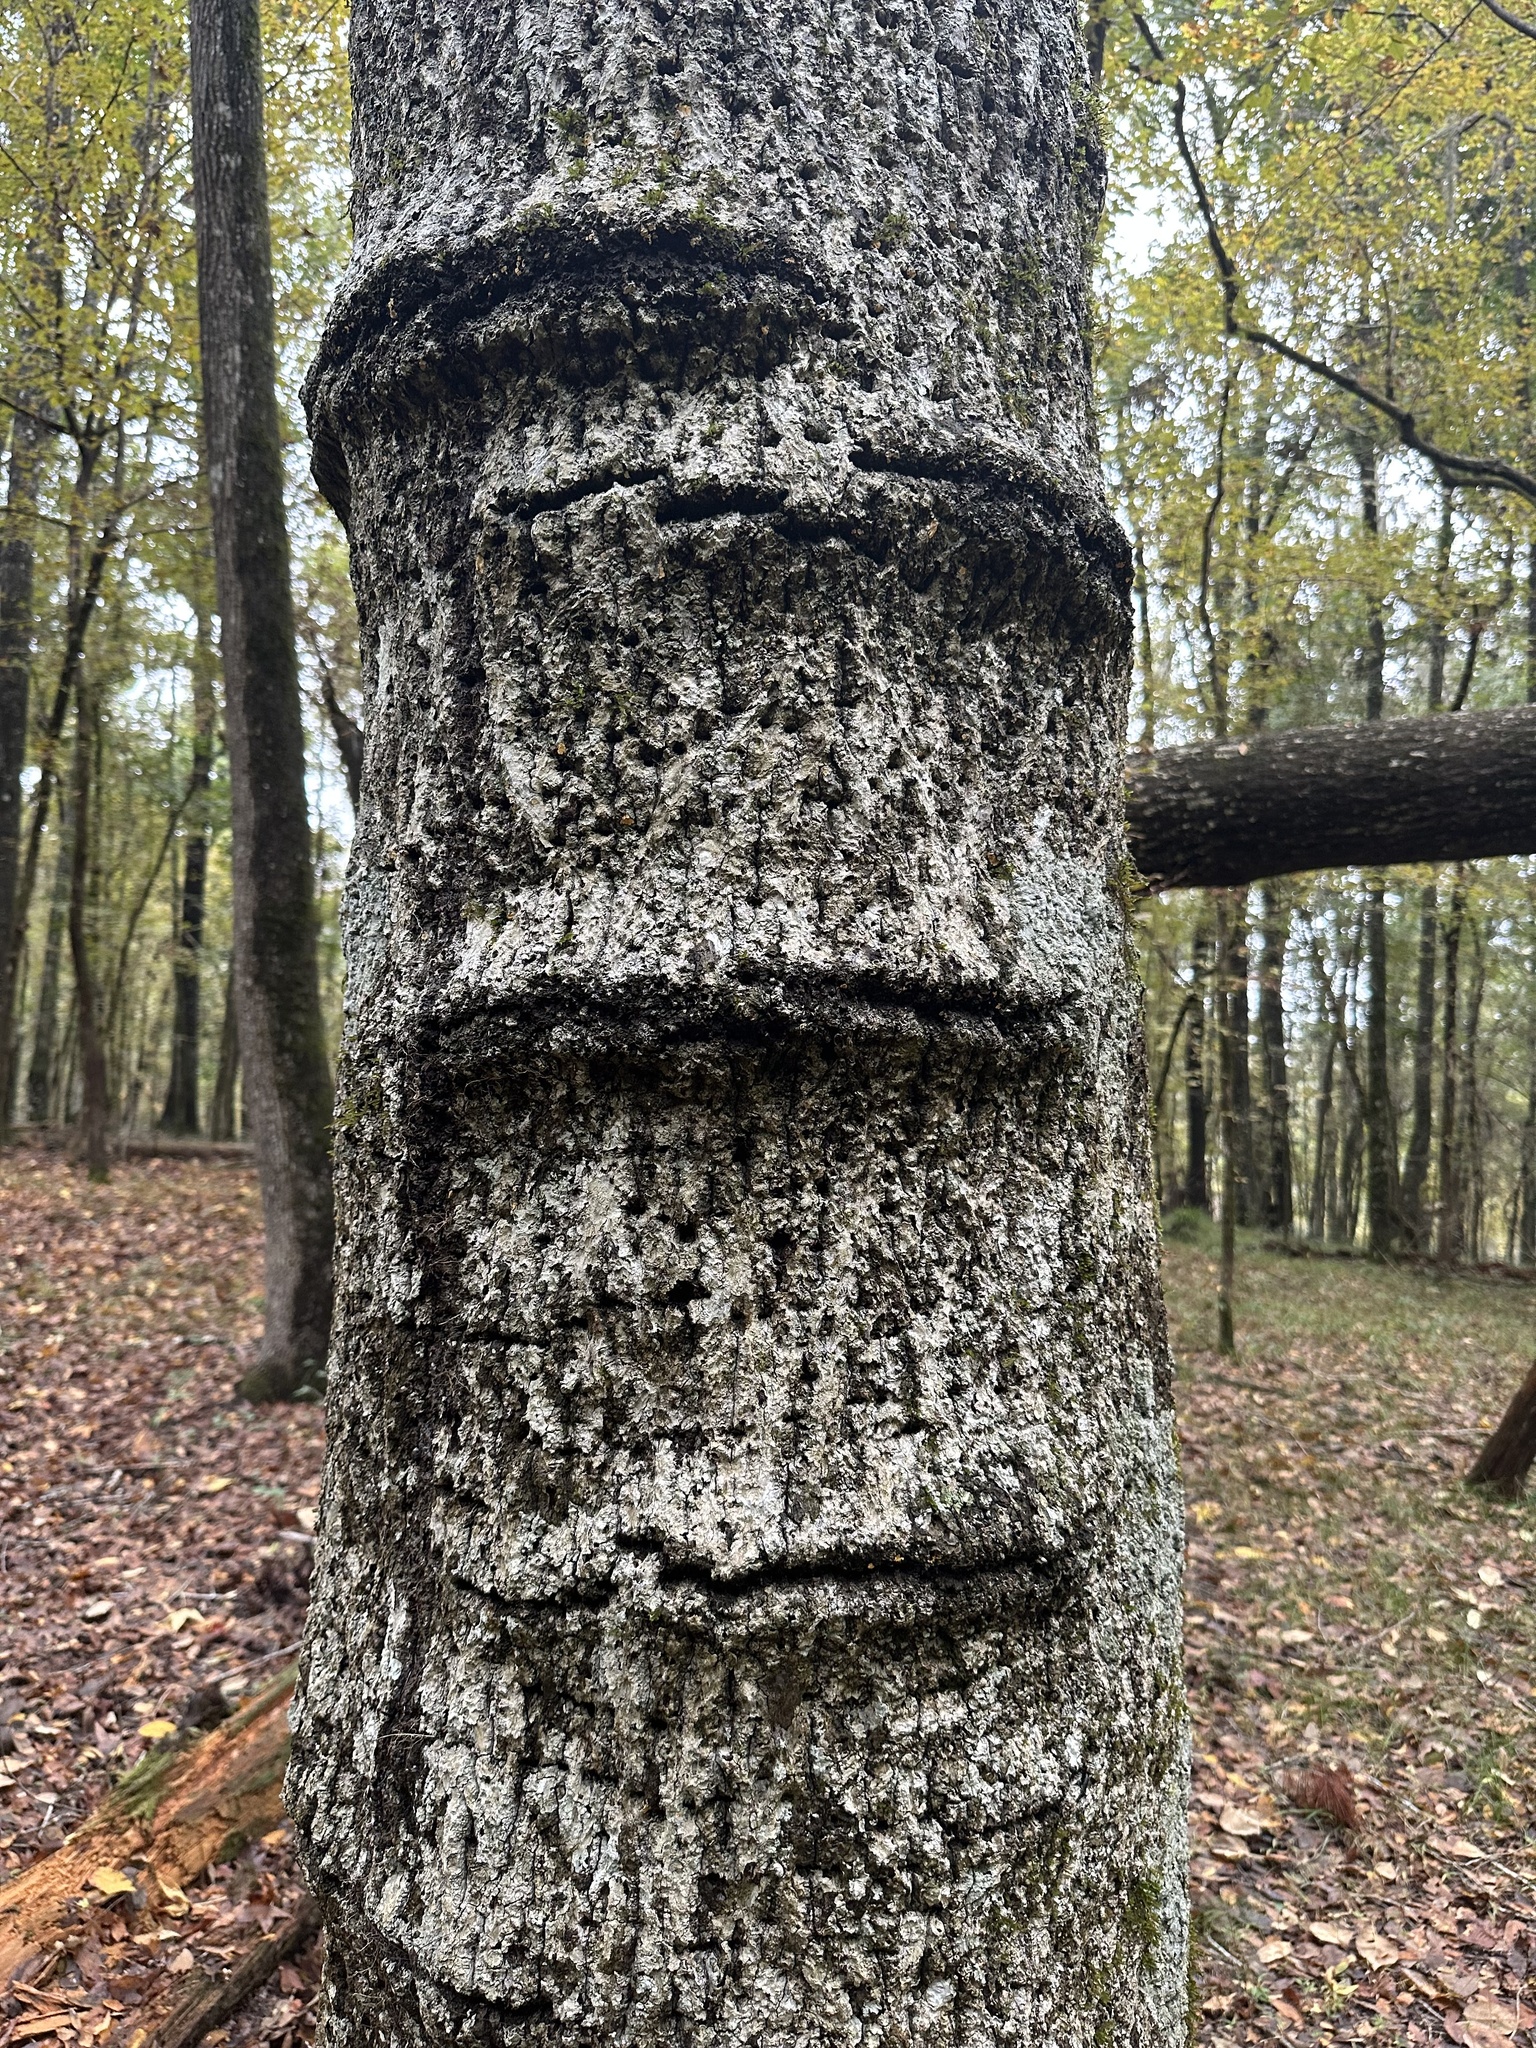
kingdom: Animalia
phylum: Chordata
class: Aves
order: Piciformes
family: Picidae
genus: Sphyrapicus
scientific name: Sphyrapicus varius
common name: Yellow-bellied sapsucker
